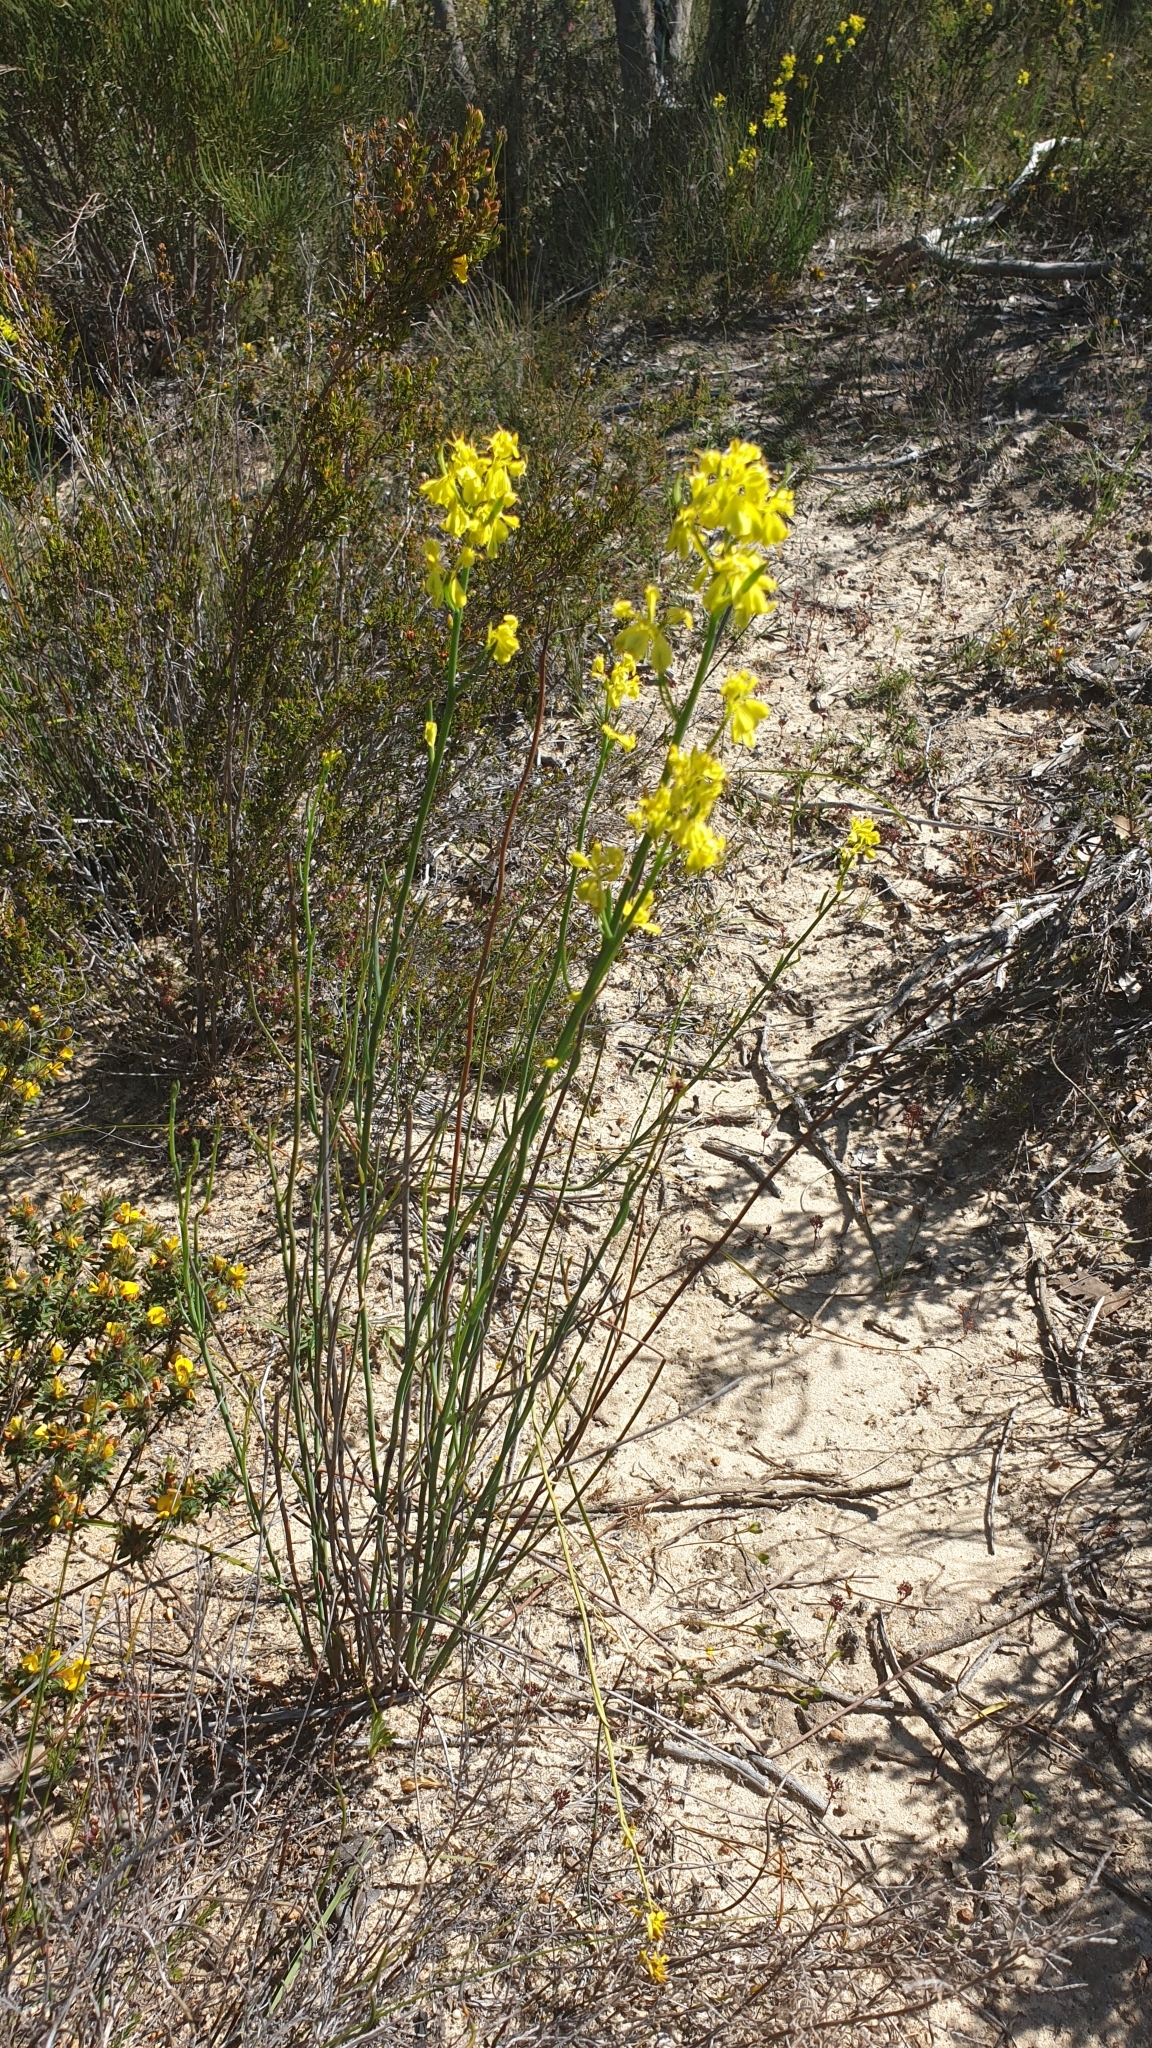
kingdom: Plantae
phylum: Tracheophyta
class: Magnoliopsida
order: Saxifragales
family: Haloragaceae
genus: Glischrocaryon
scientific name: Glischrocaryon behrii
